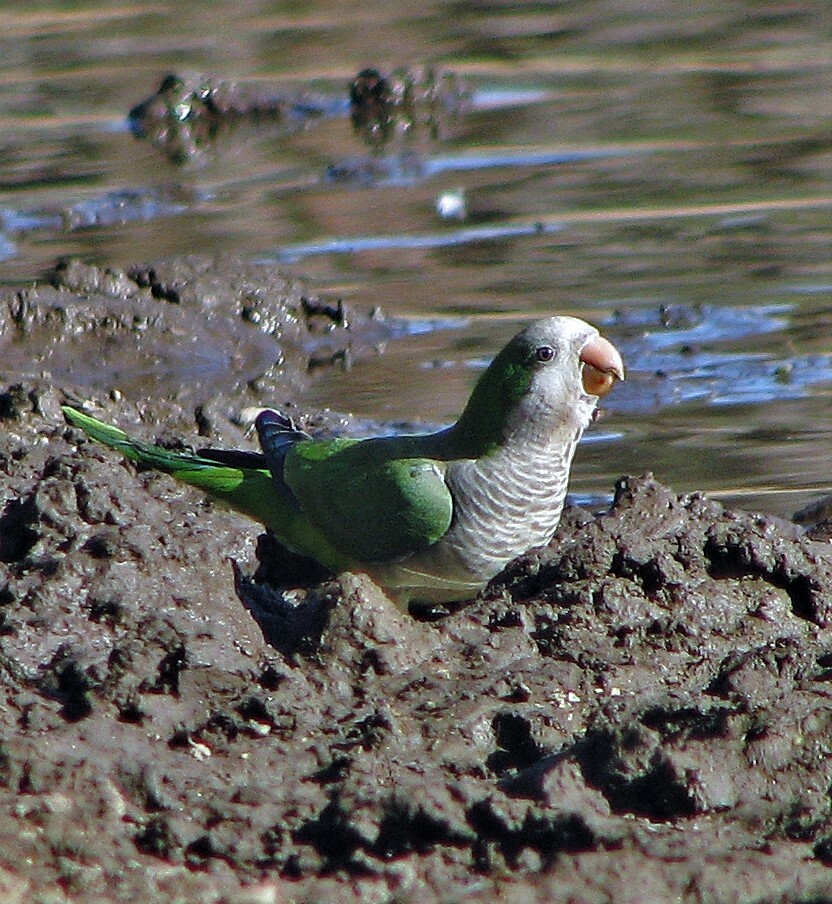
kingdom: Animalia
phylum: Chordata
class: Aves
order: Psittaciformes
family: Psittacidae
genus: Myiopsitta
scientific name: Myiopsitta monachus
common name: Monk parakeet
